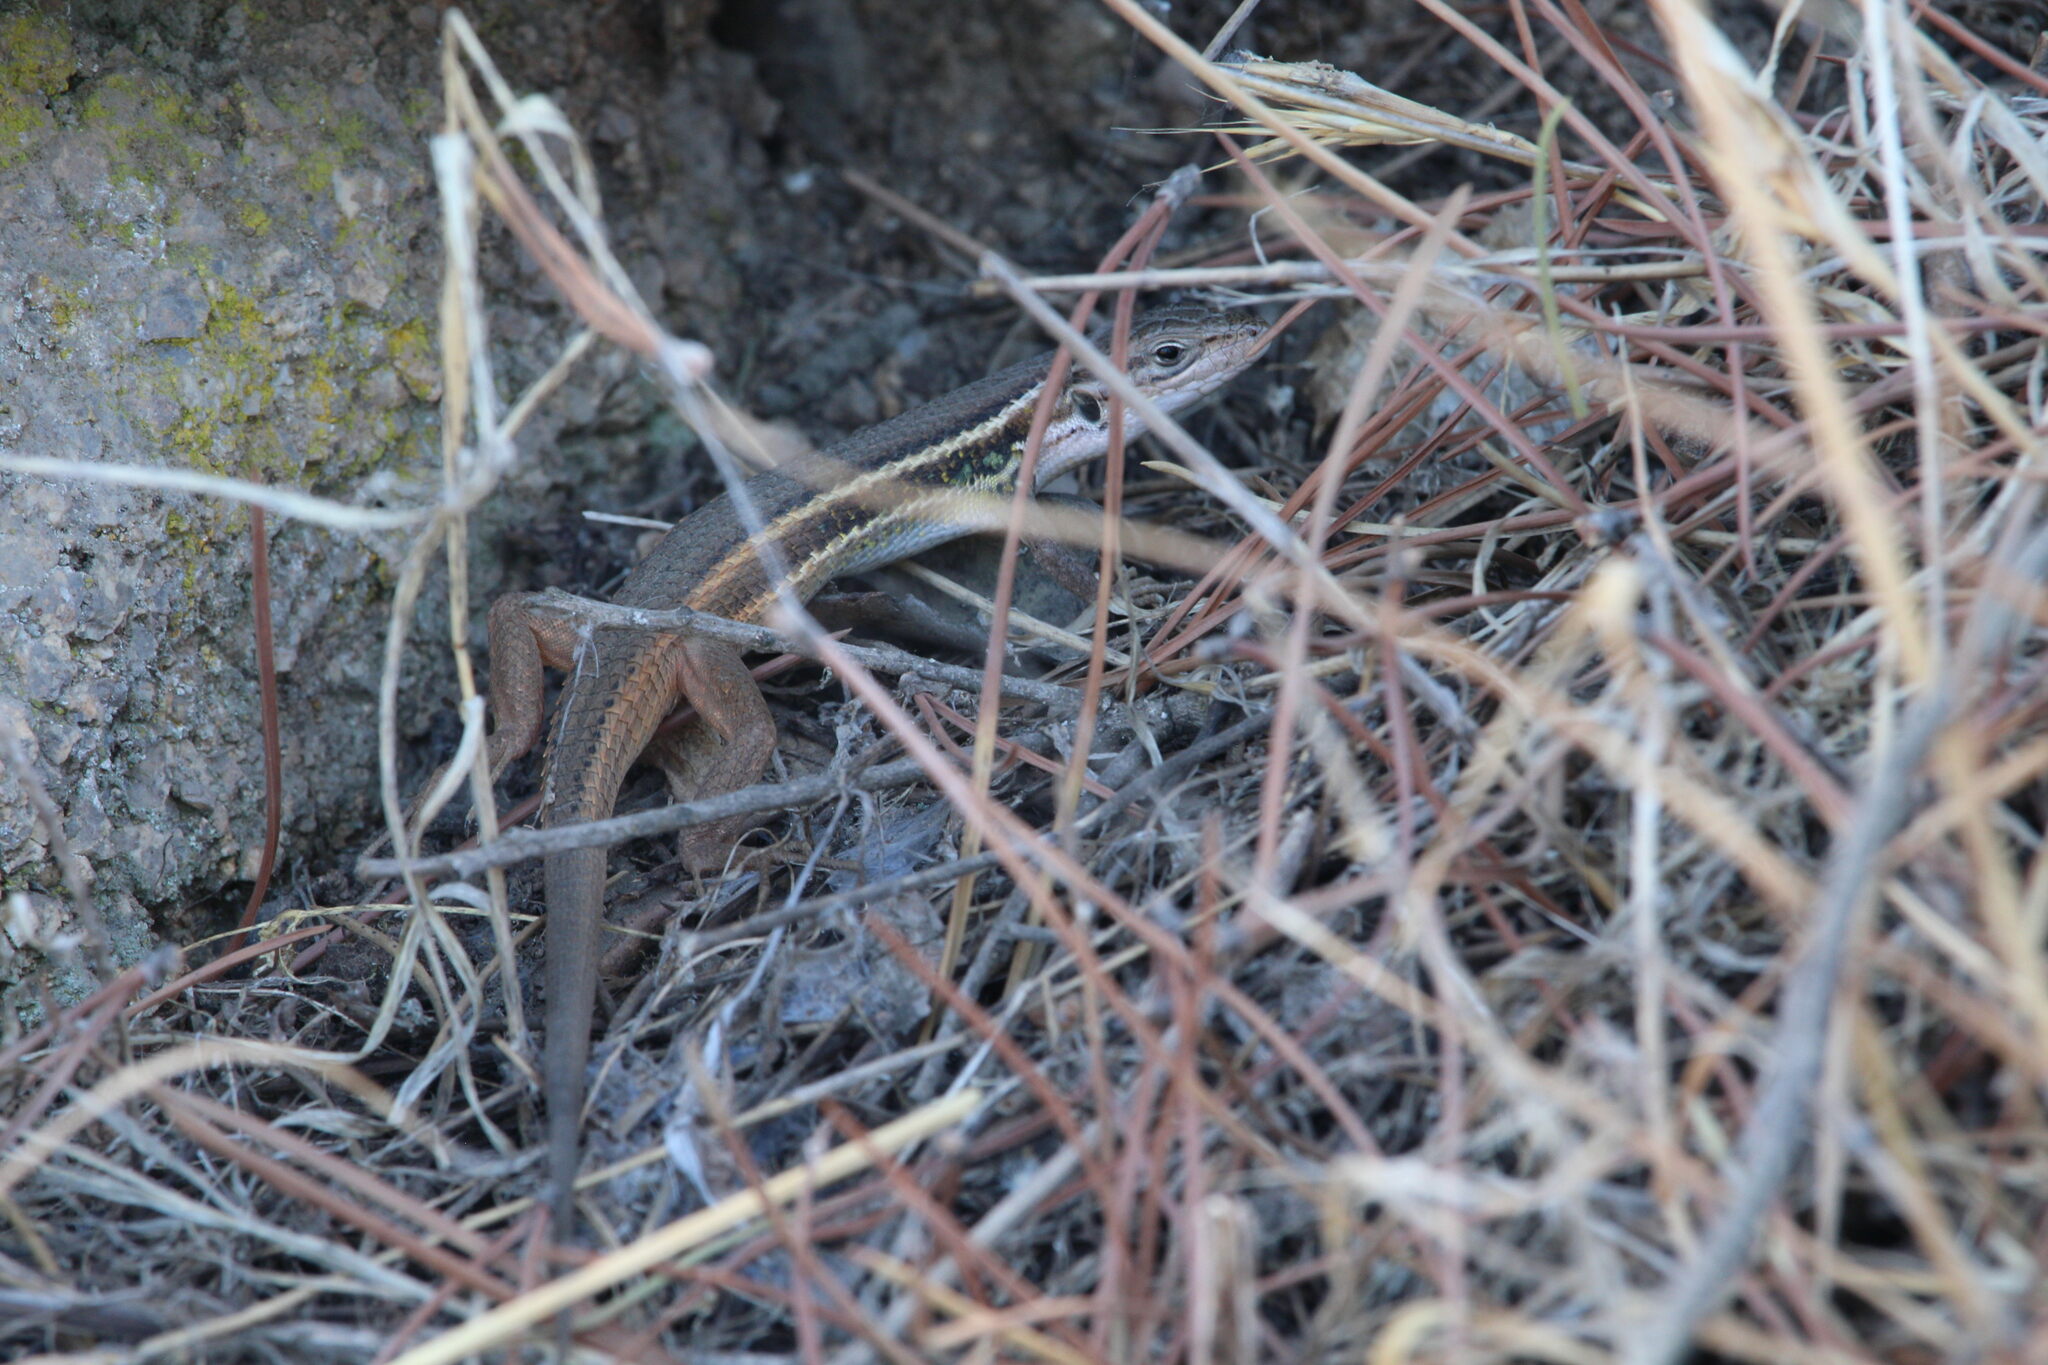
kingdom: Animalia
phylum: Chordata
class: Squamata
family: Lacertidae
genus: Psammodromus
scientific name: Psammodromus algirus
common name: Algerian psammodromus
